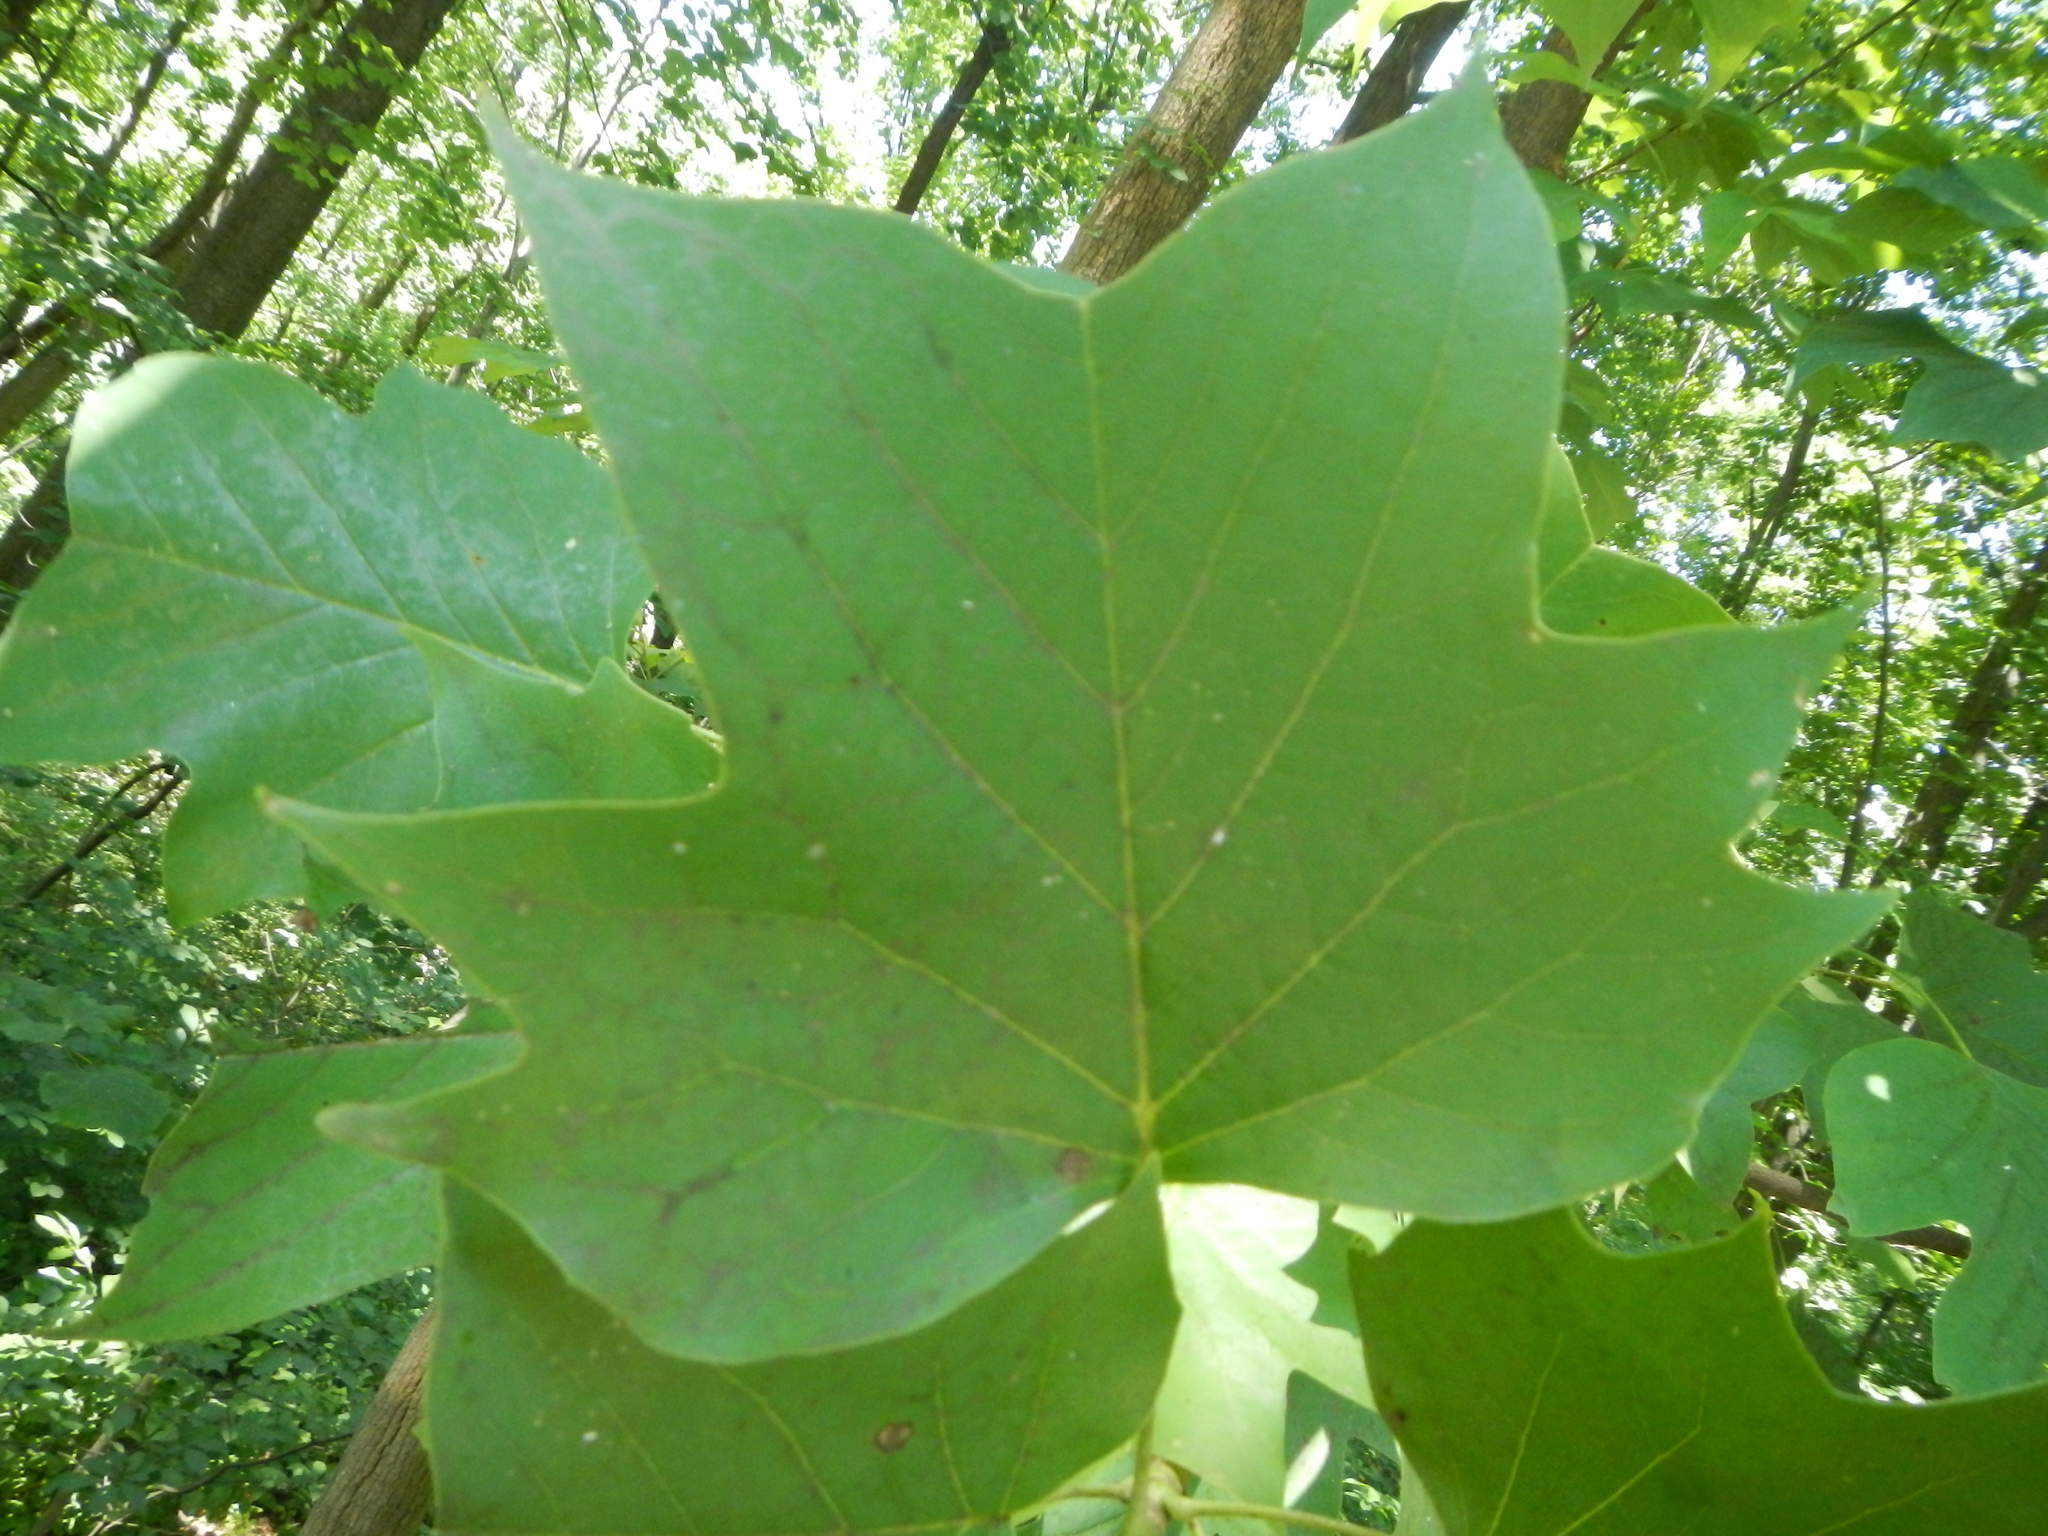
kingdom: Plantae
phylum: Tracheophyta
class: Magnoliopsida
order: Magnoliales
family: Magnoliaceae
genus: Liriodendron
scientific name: Liriodendron tulipifera
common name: Tulip tree
